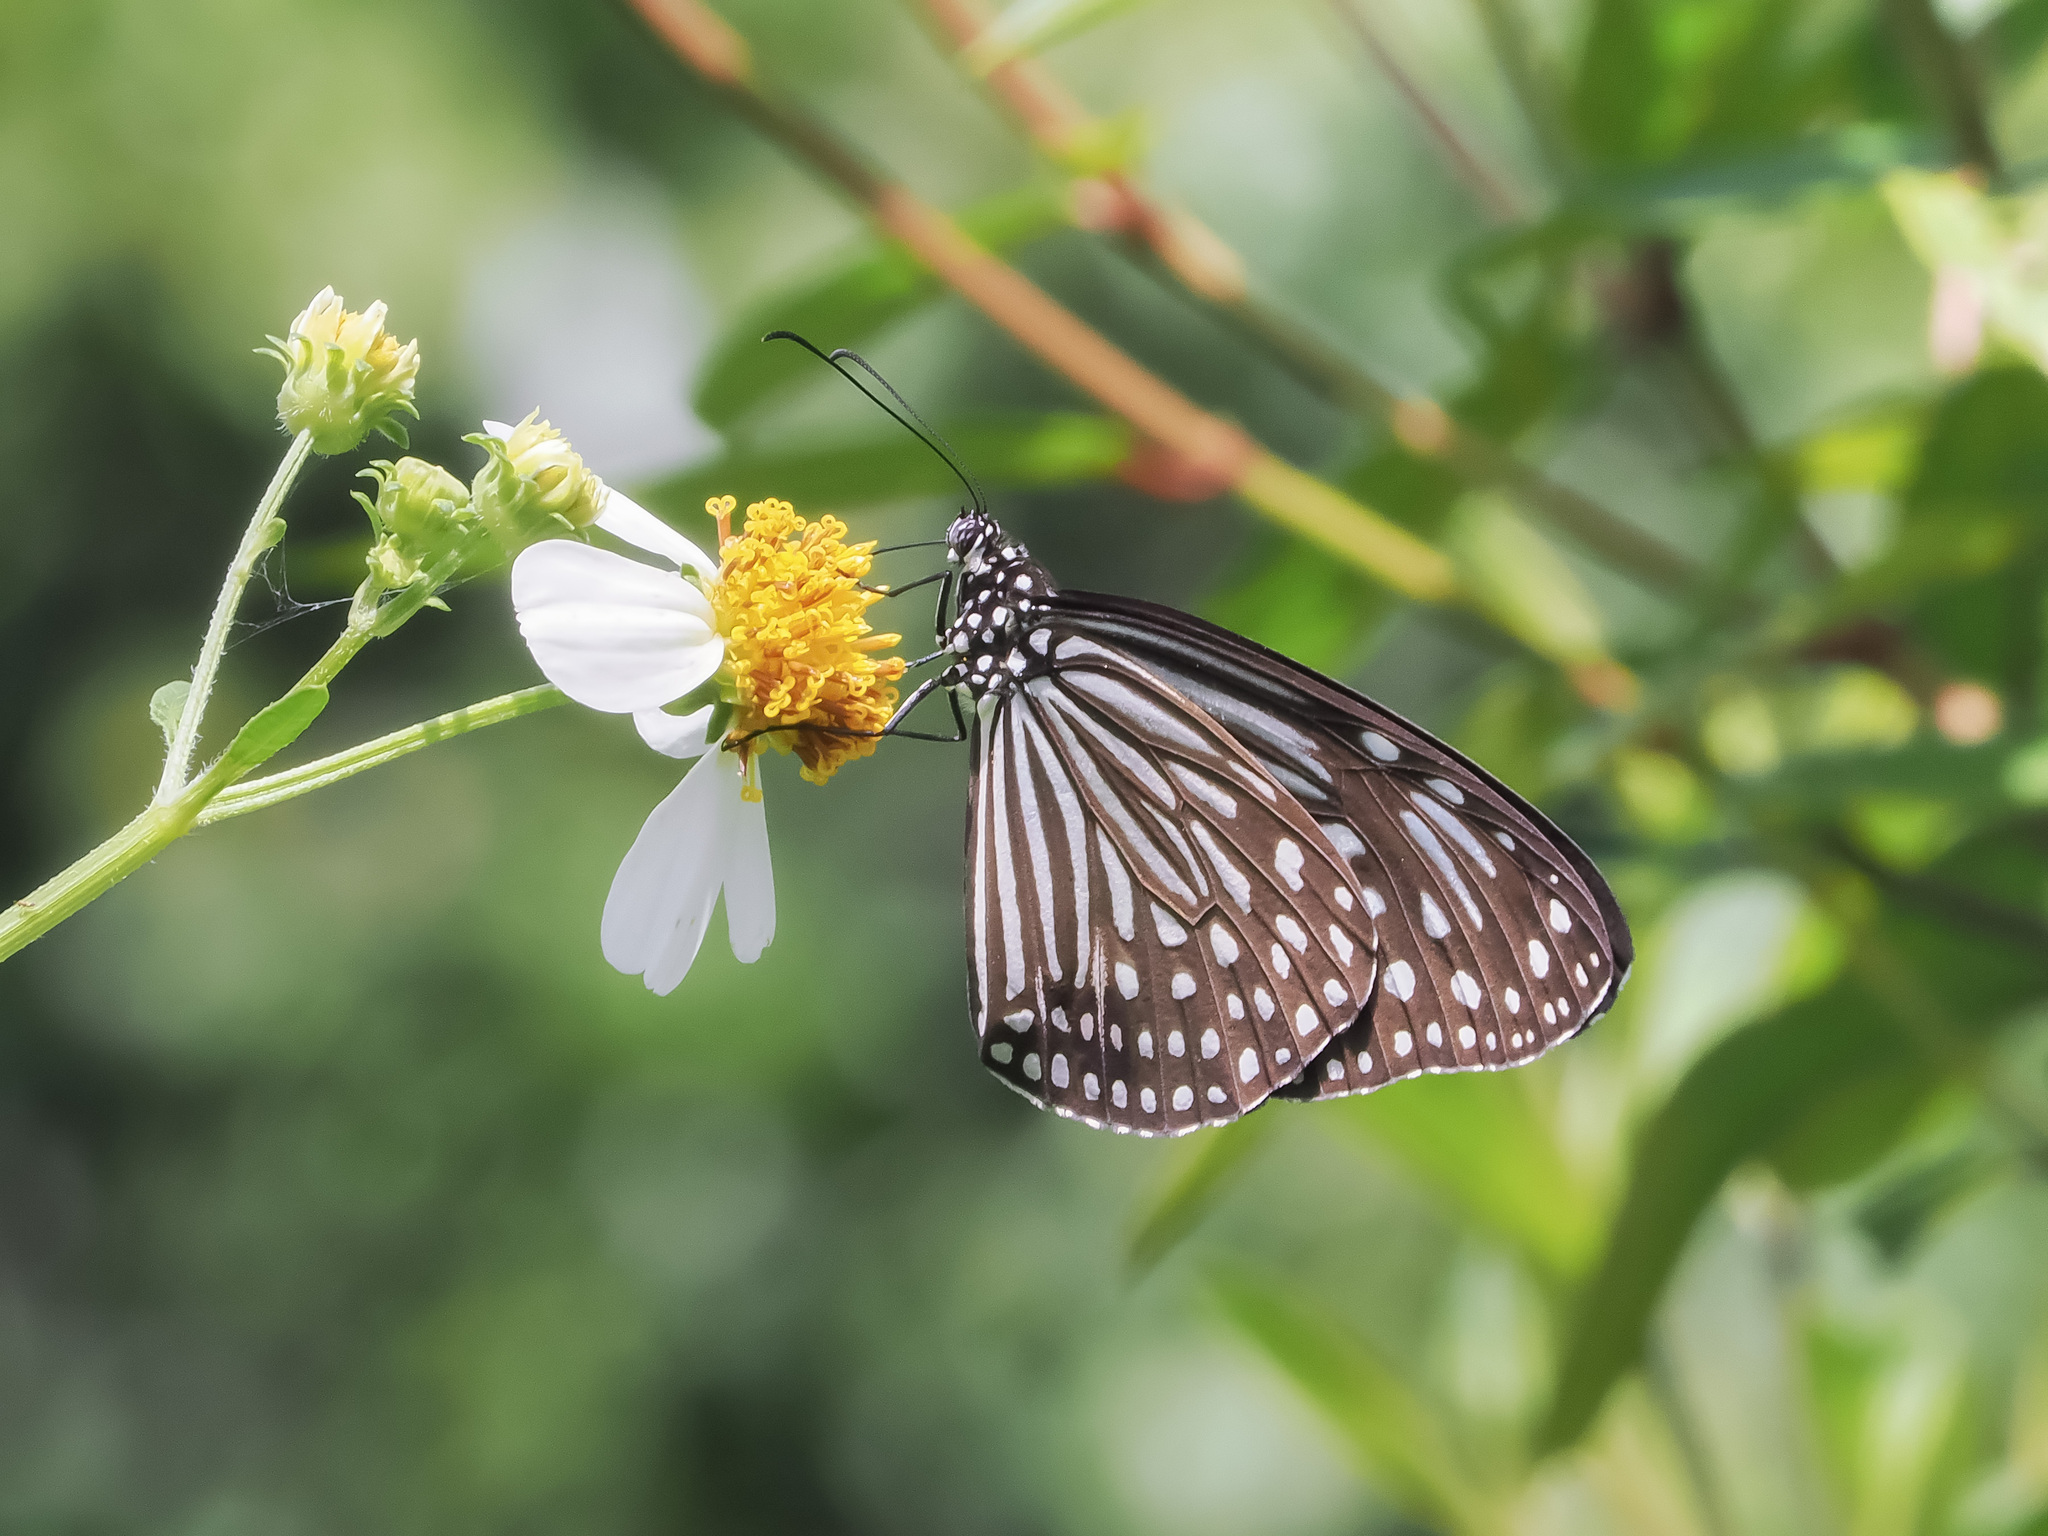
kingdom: Animalia
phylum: Arthropoda
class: Insecta
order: Lepidoptera
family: Nymphalidae
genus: Parantica
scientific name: Parantica agleoides
